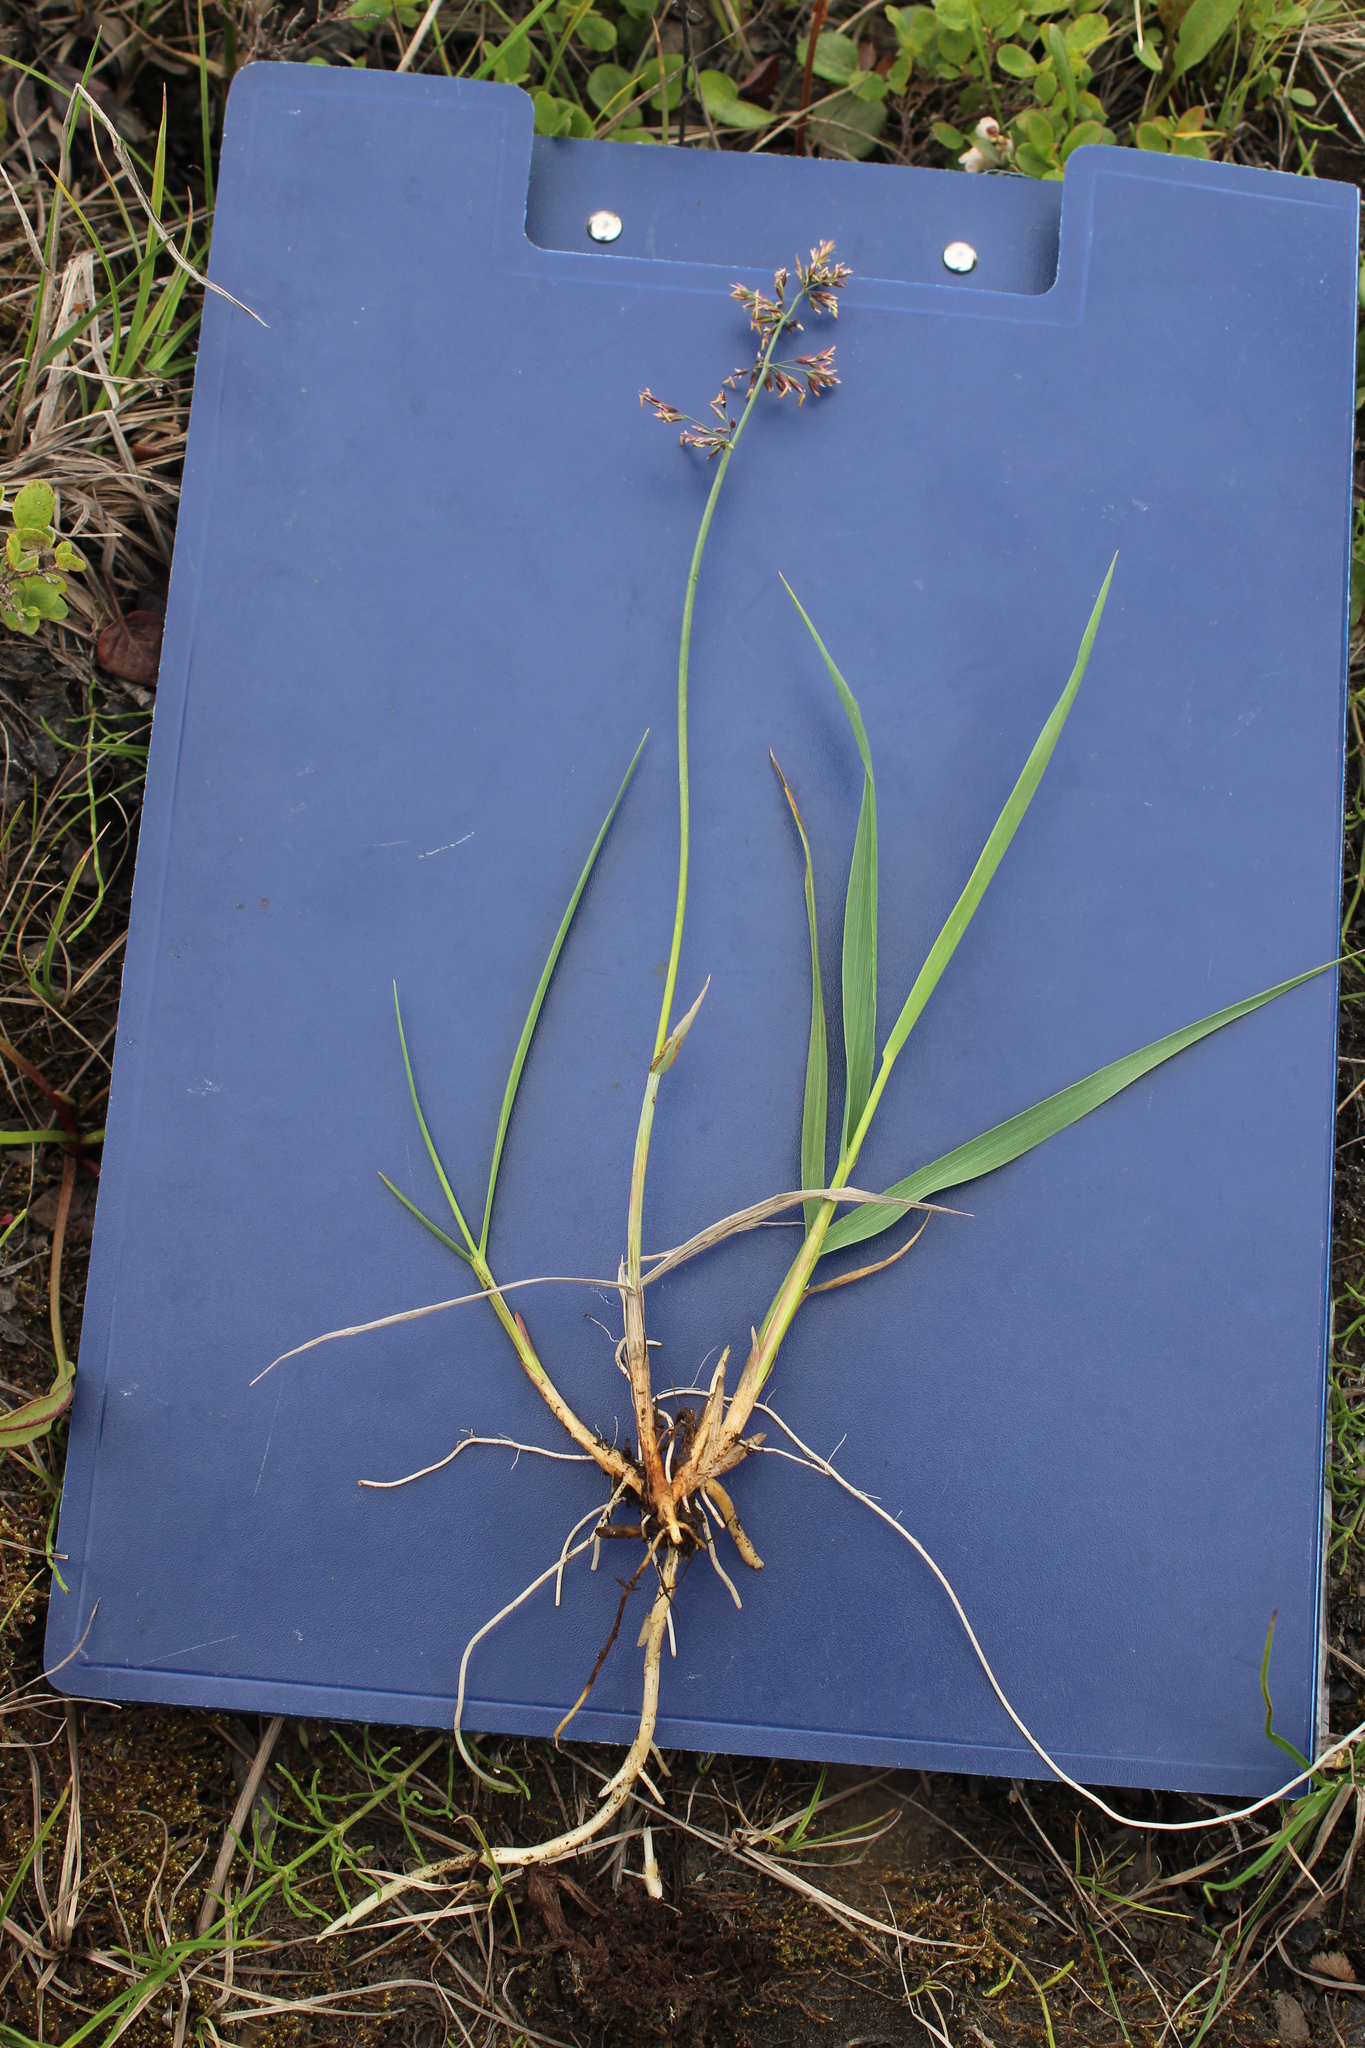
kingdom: Plantae
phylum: Tracheophyta
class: Liliopsida
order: Poales
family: Poaceae
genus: Arctagrostis
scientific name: Arctagrostis latifolia
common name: Arctic grass
